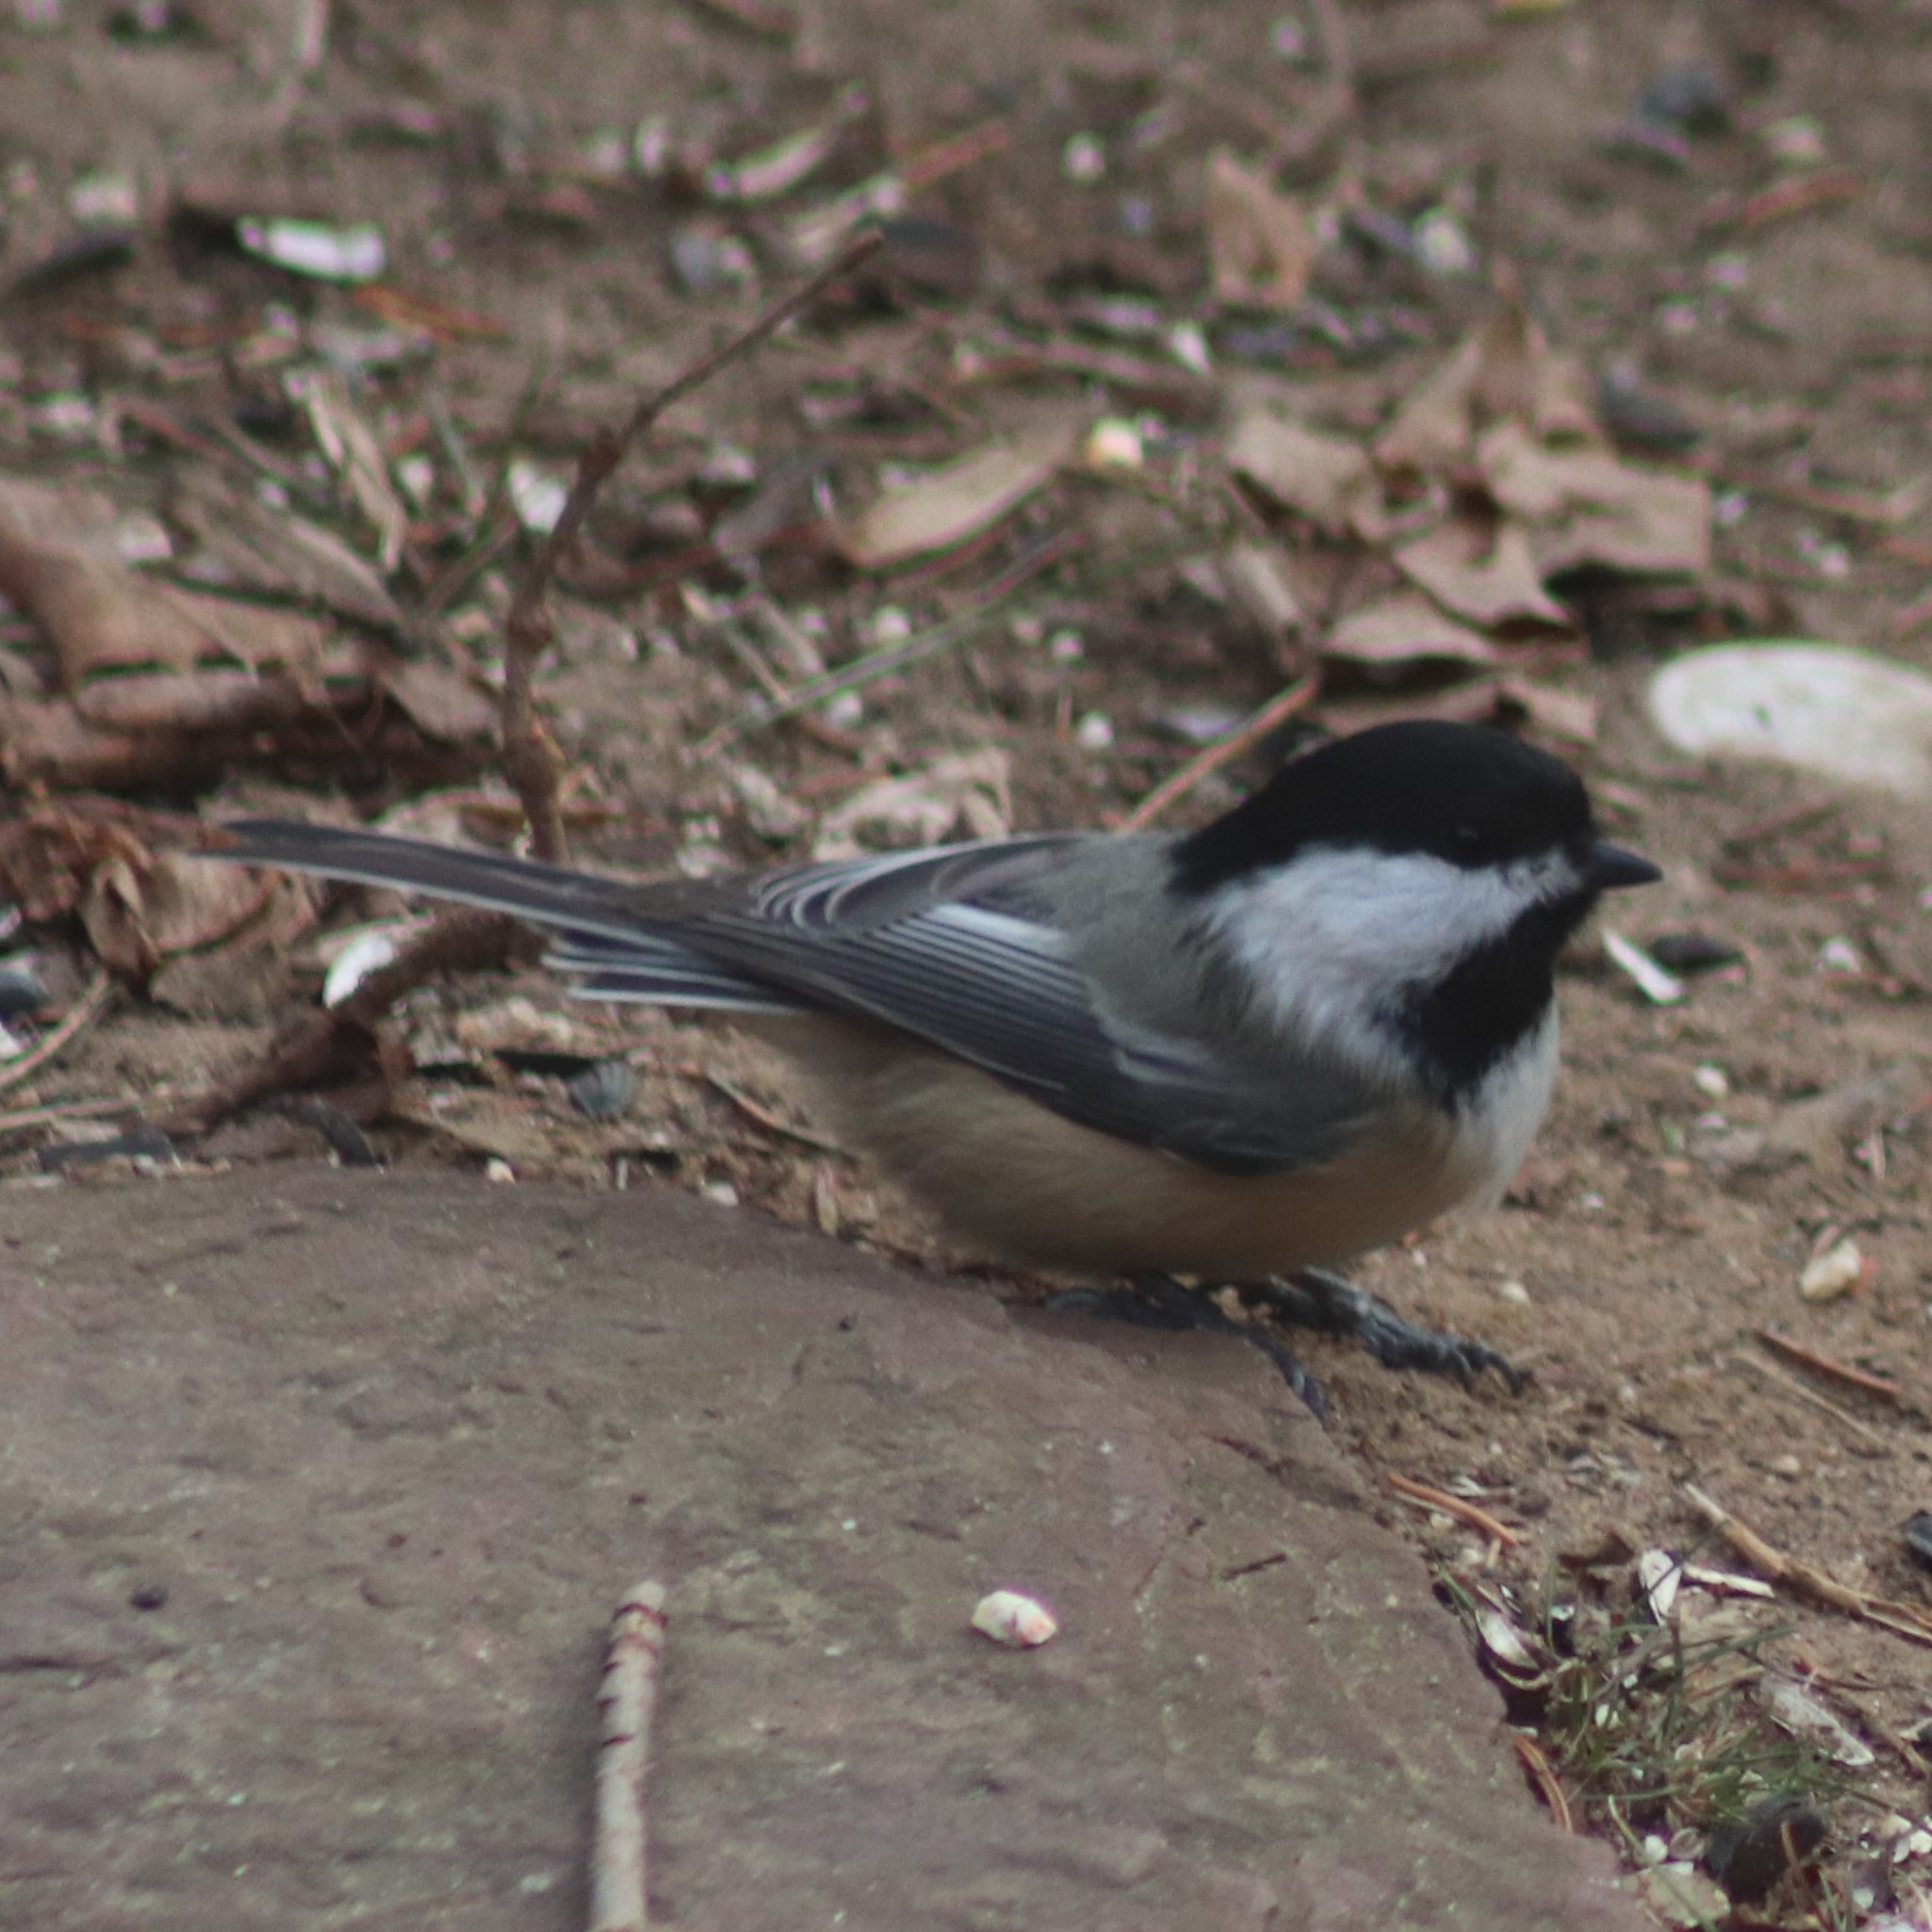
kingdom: Animalia
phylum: Chordata
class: Aves
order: Passeriformes
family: Paridae
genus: Poecile
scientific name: Poecile atricapillus
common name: Black-capped chickadee
